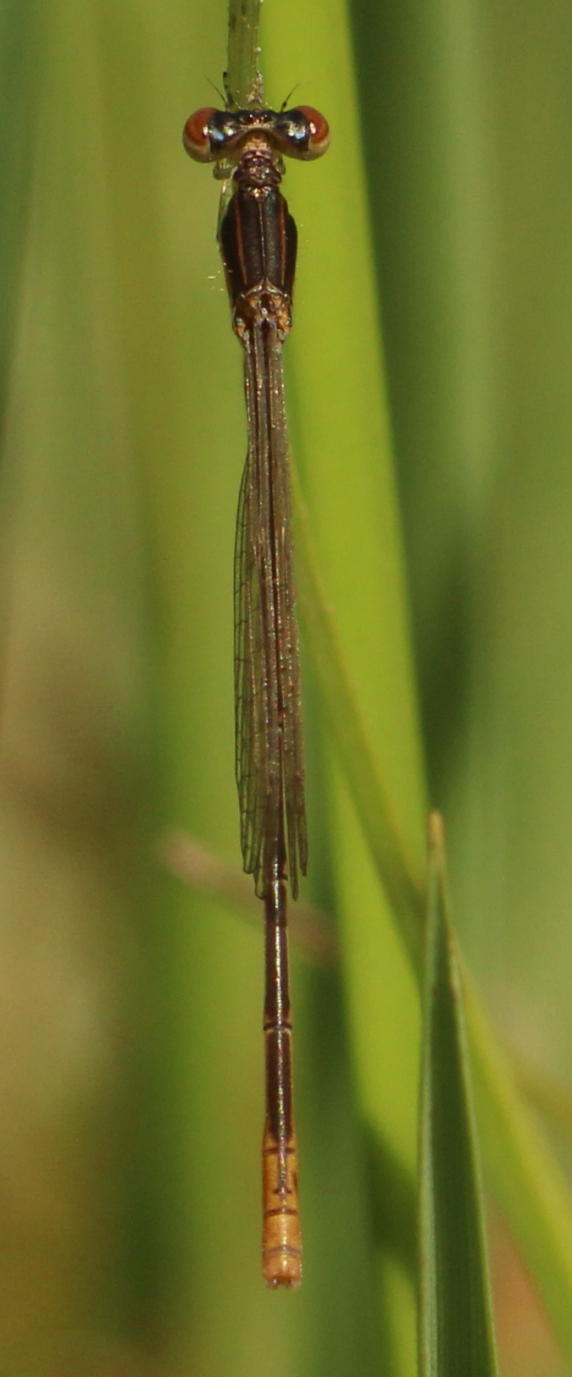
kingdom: Animalia
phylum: Arthropoda
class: Insecta
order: Odonata
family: Coenagrionidae
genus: Agriocnemis
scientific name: Agriocnemis pinheyi
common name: Highland whisp
